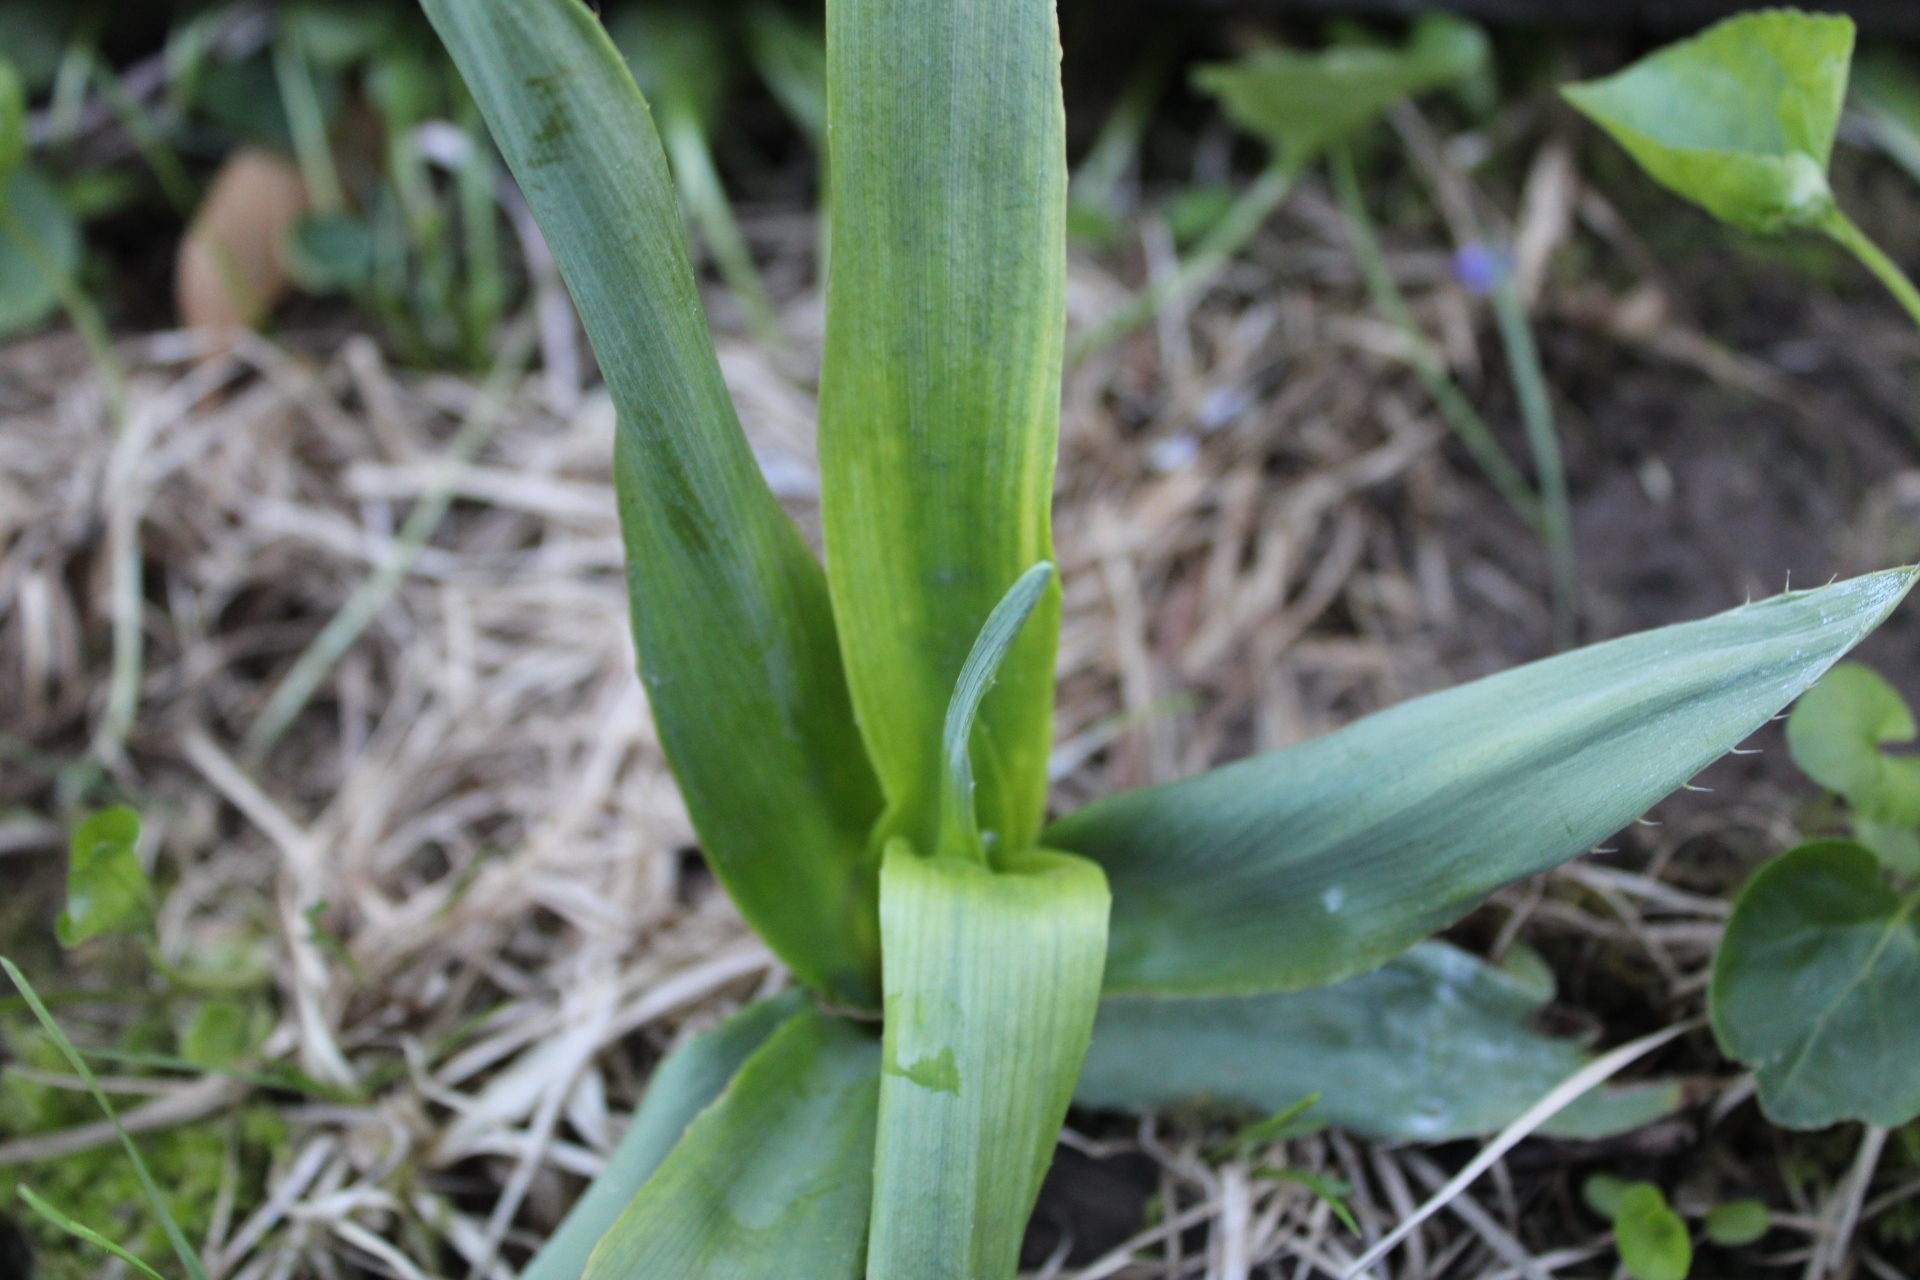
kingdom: Plantae
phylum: Tracheophyta
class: Magnoliopsida
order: Apiales
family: Apiaceae
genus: Eryngium
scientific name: Eryngium yuccifolium
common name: Button eryngo
